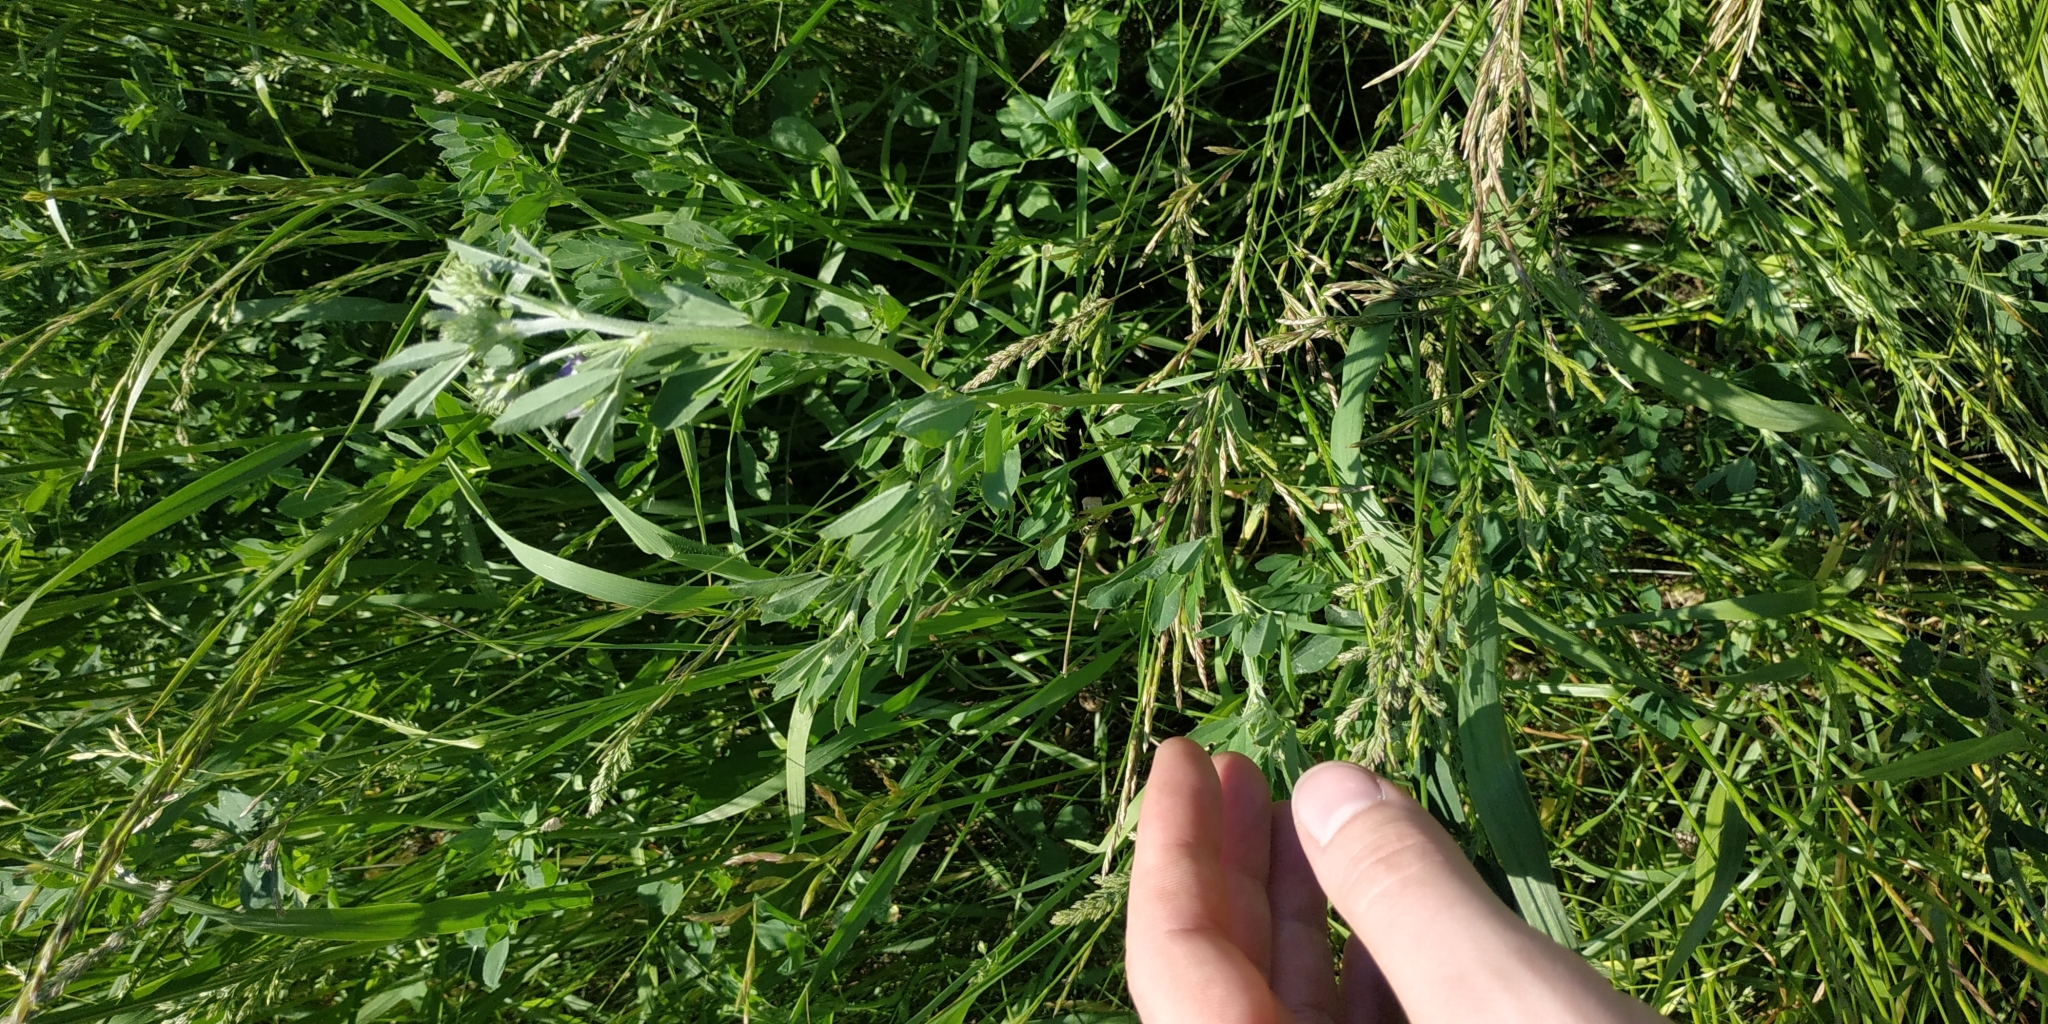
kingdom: Plantae
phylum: Tracheophyta
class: Magnoliopsida
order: Fabales
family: Fabaceae
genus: Medicago
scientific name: Medicago varia
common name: Sand lucerne
